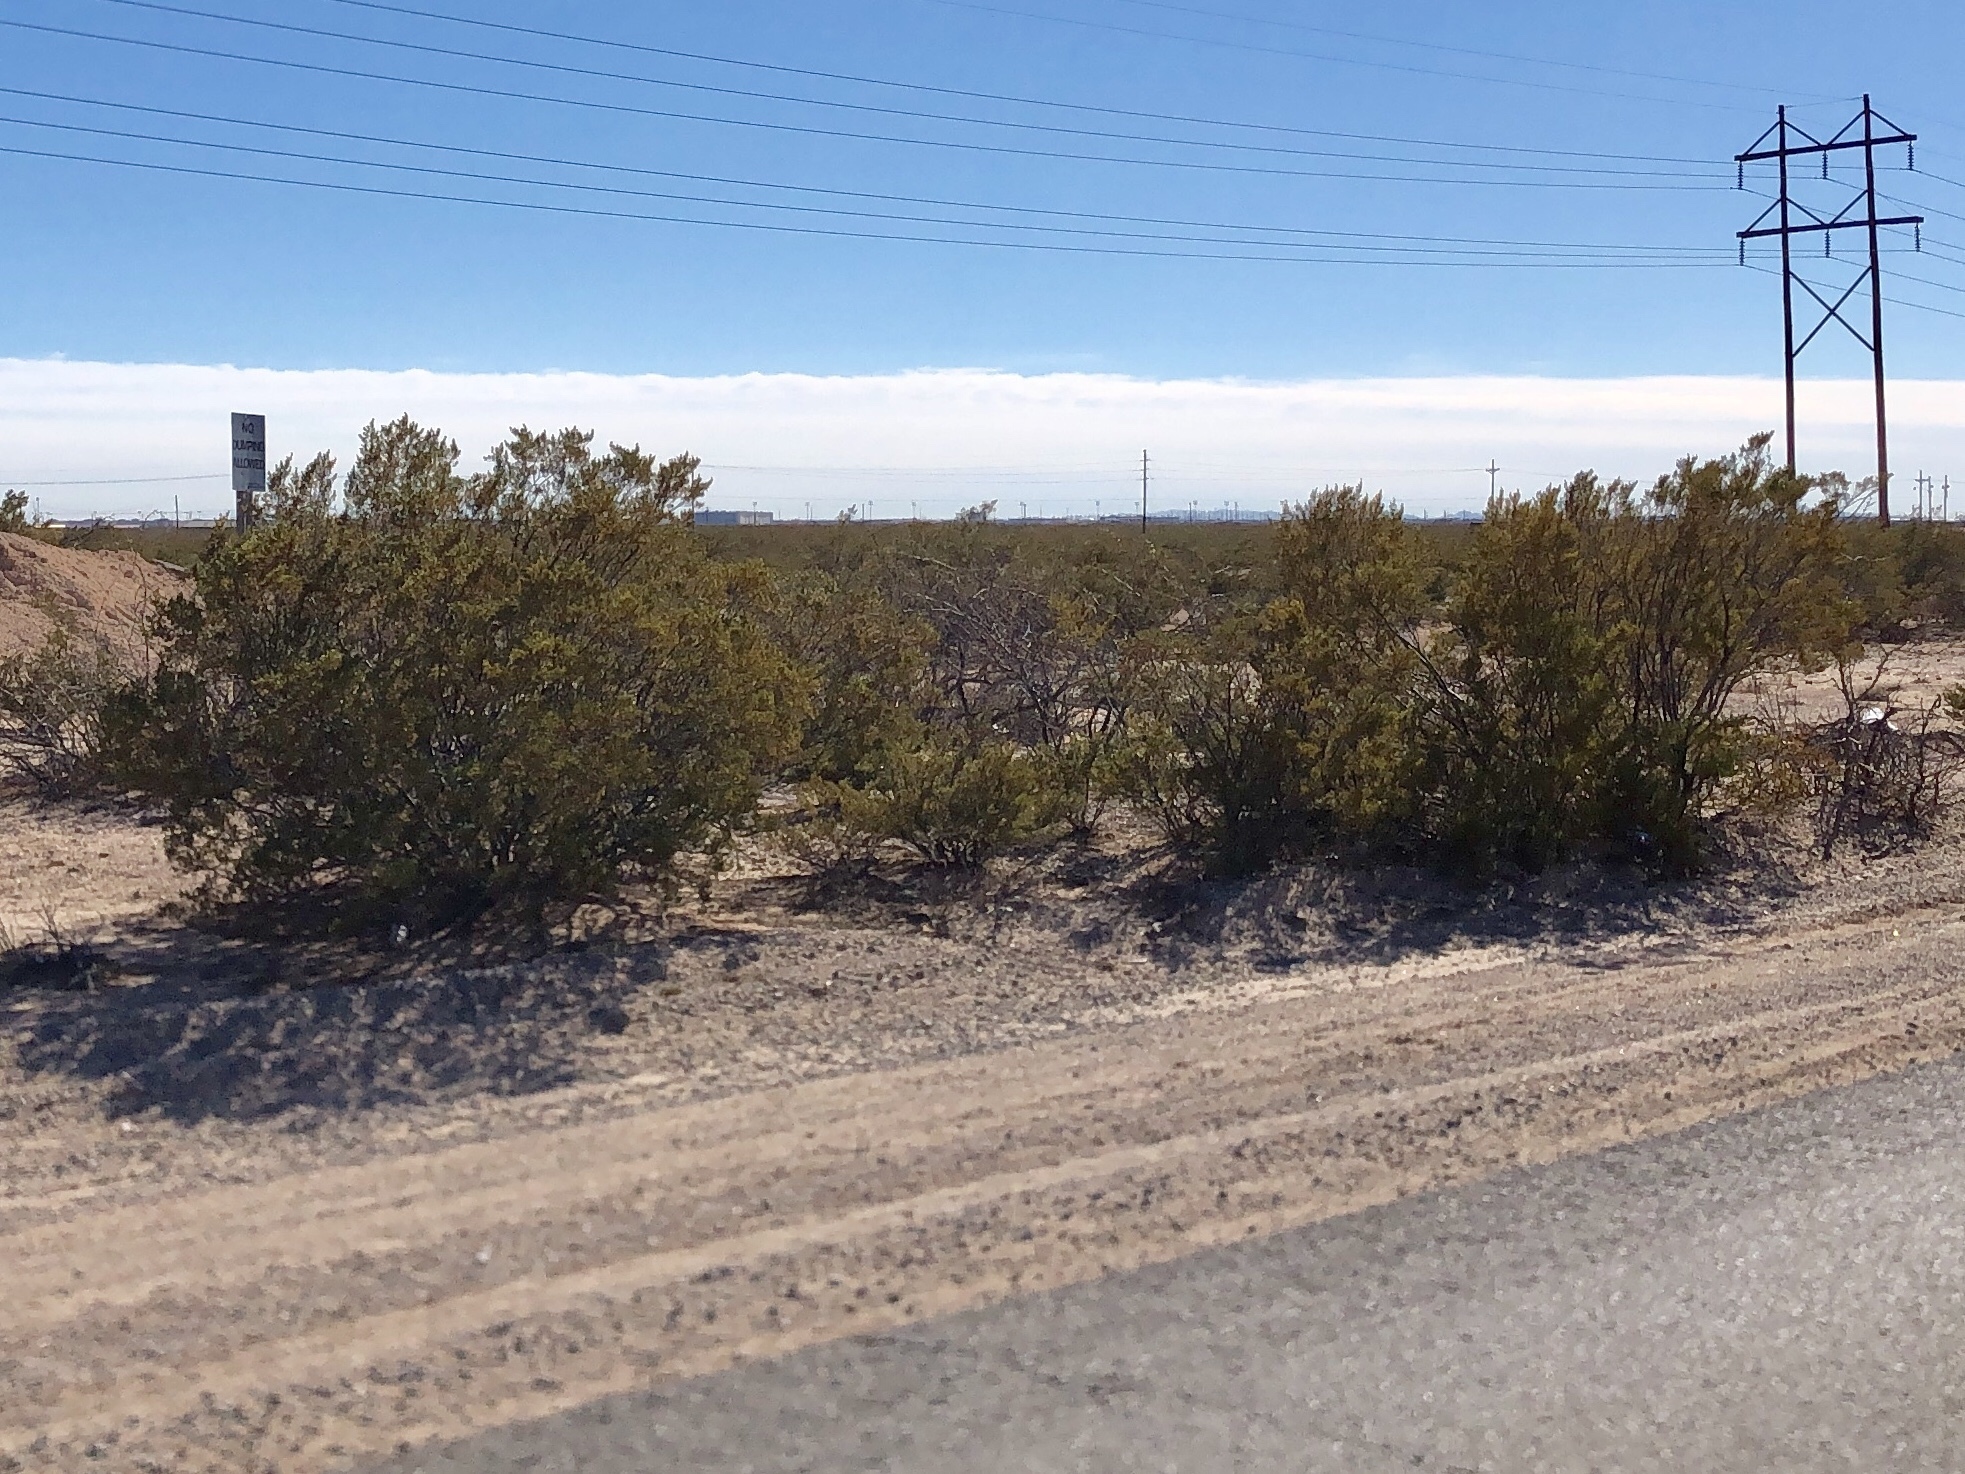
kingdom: Plantae
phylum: Tracheophyta
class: Magnoliopsida
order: Zygophyllales
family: Zygophyllaceae
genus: Larrea
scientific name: Larrea tridentata
